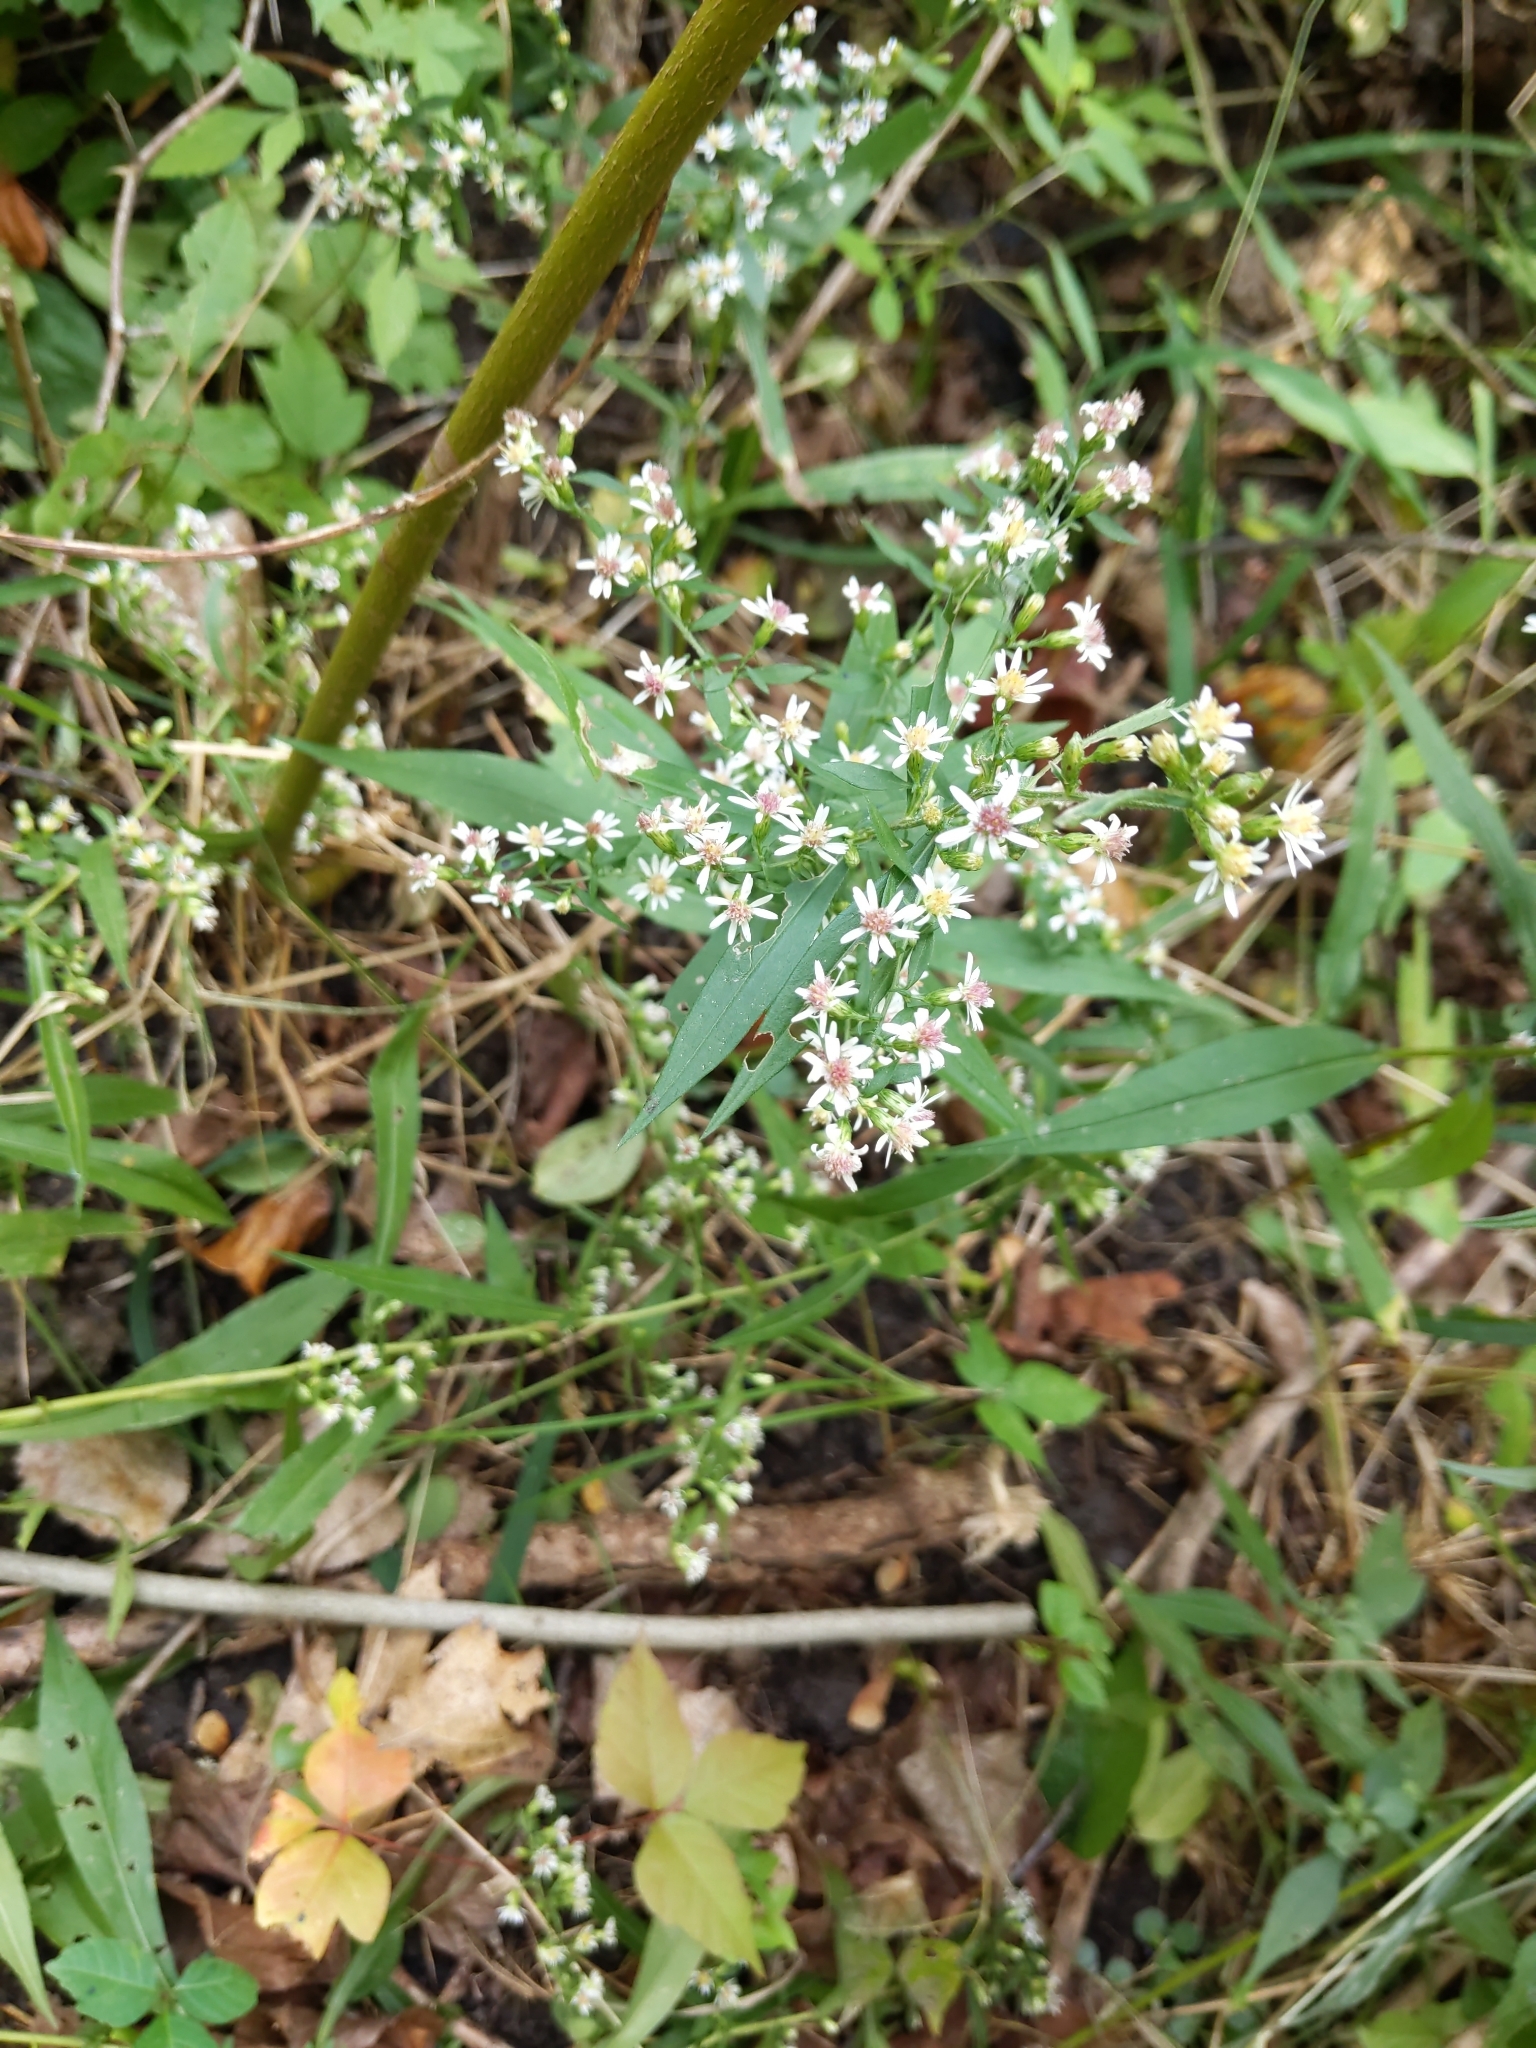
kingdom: Plantae
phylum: Tracheophyta
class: Magnoliopsida
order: Asterales
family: Asteraceae
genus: Symphyotrichum
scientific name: Symphyotrichum lateriflorum
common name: Calico aster
